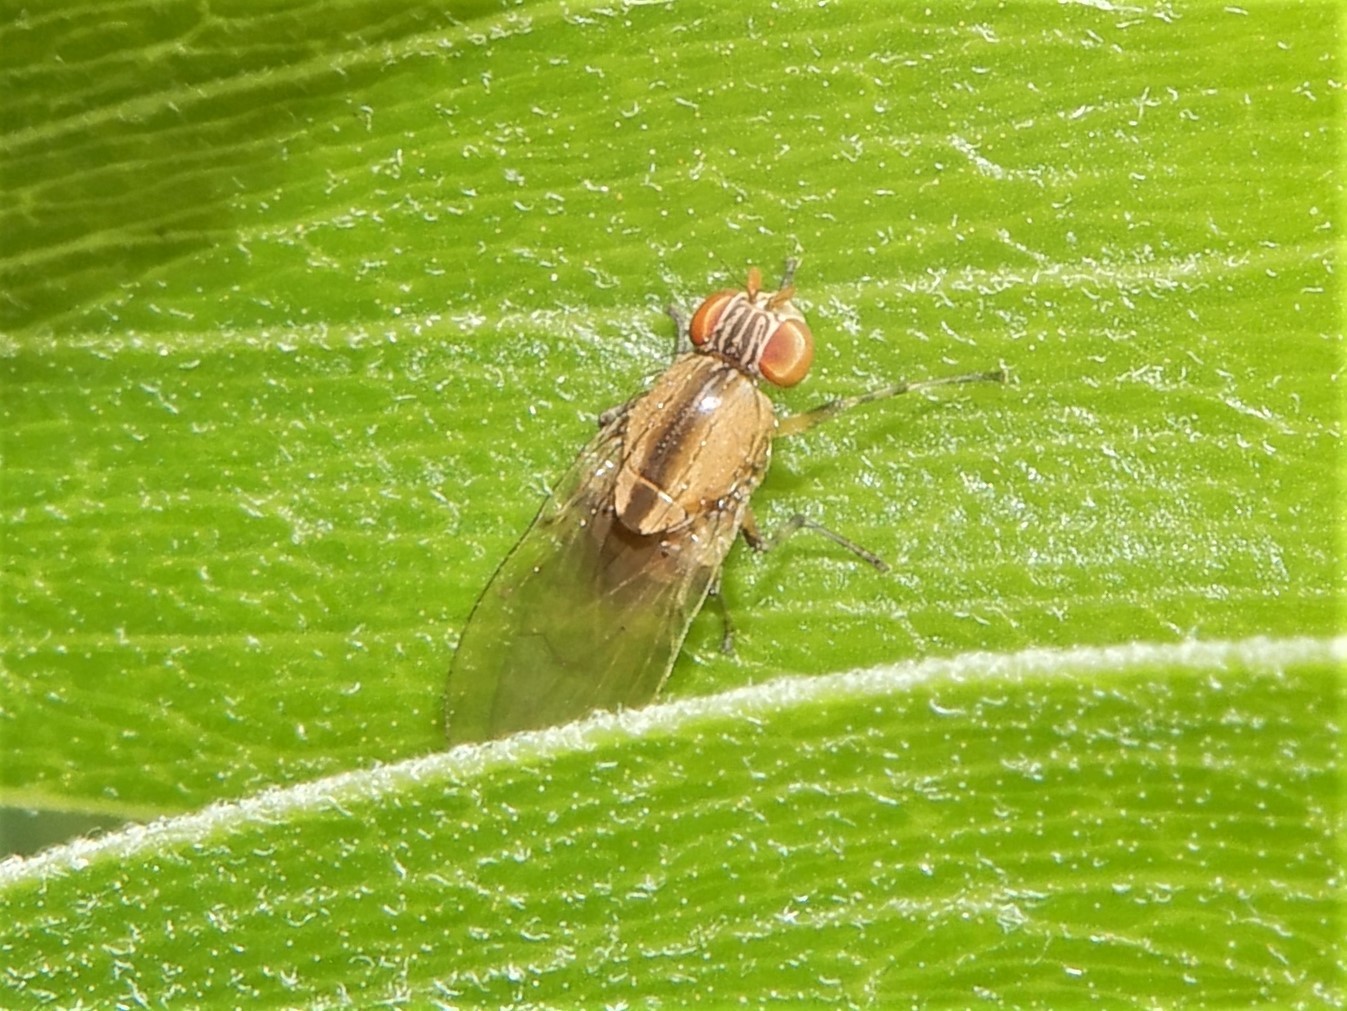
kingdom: Animalia
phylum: Arthropoda
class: Insecta
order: Diptera
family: Lauxaniidae
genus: Sapromyza
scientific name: Sapromyza neozelandica
